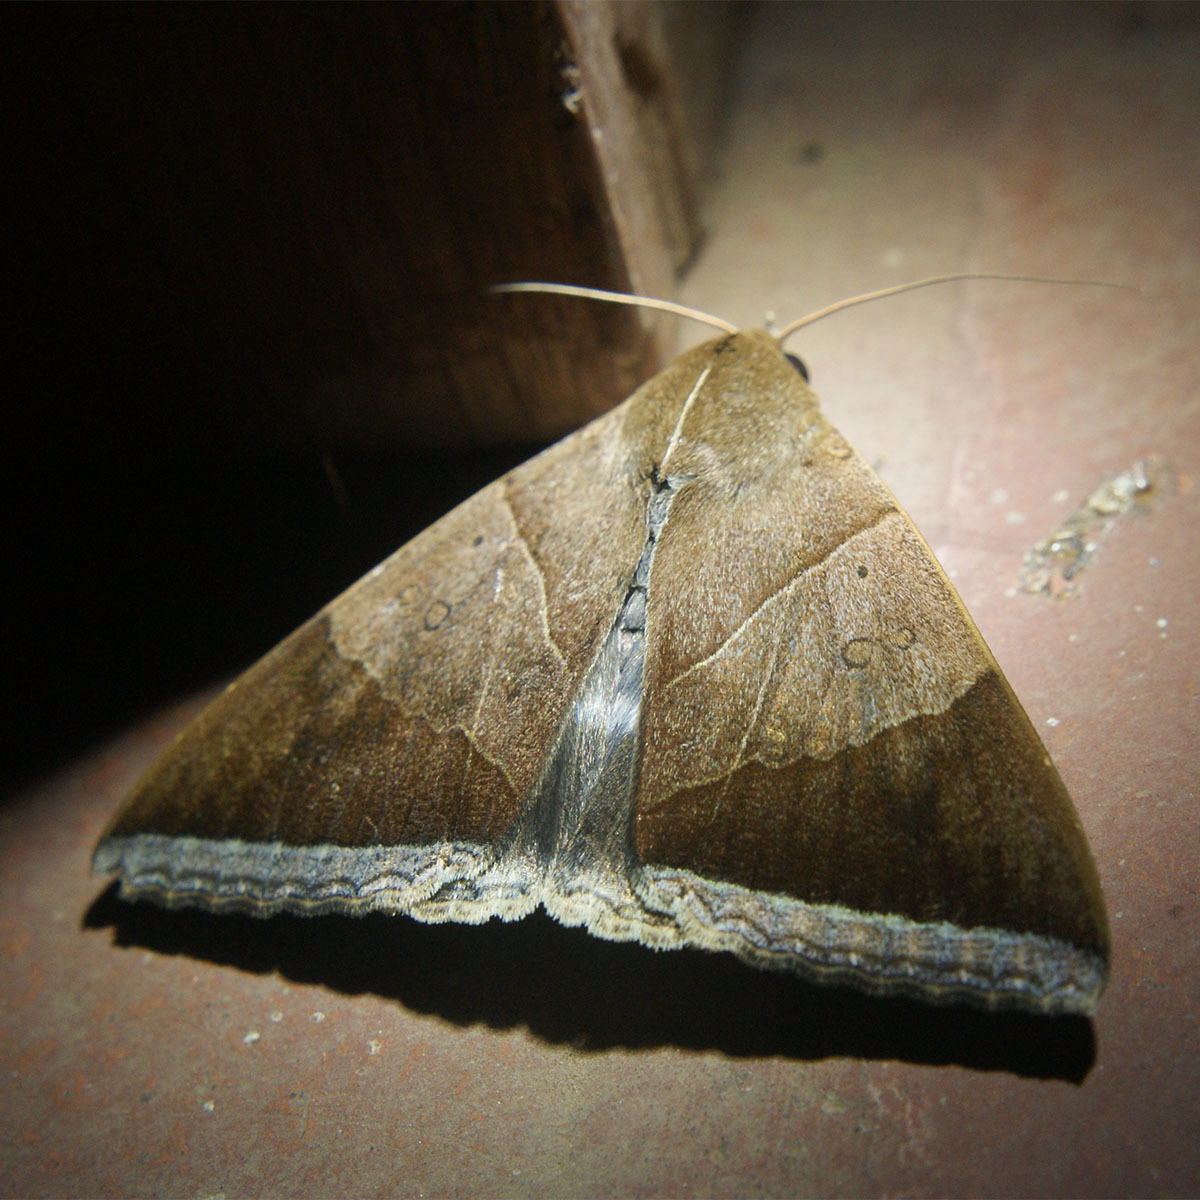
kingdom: Animalia
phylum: Arthropoda
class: Insecta
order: Lepidoptera
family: Erebidae
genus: Artena
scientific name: Artena dotata
